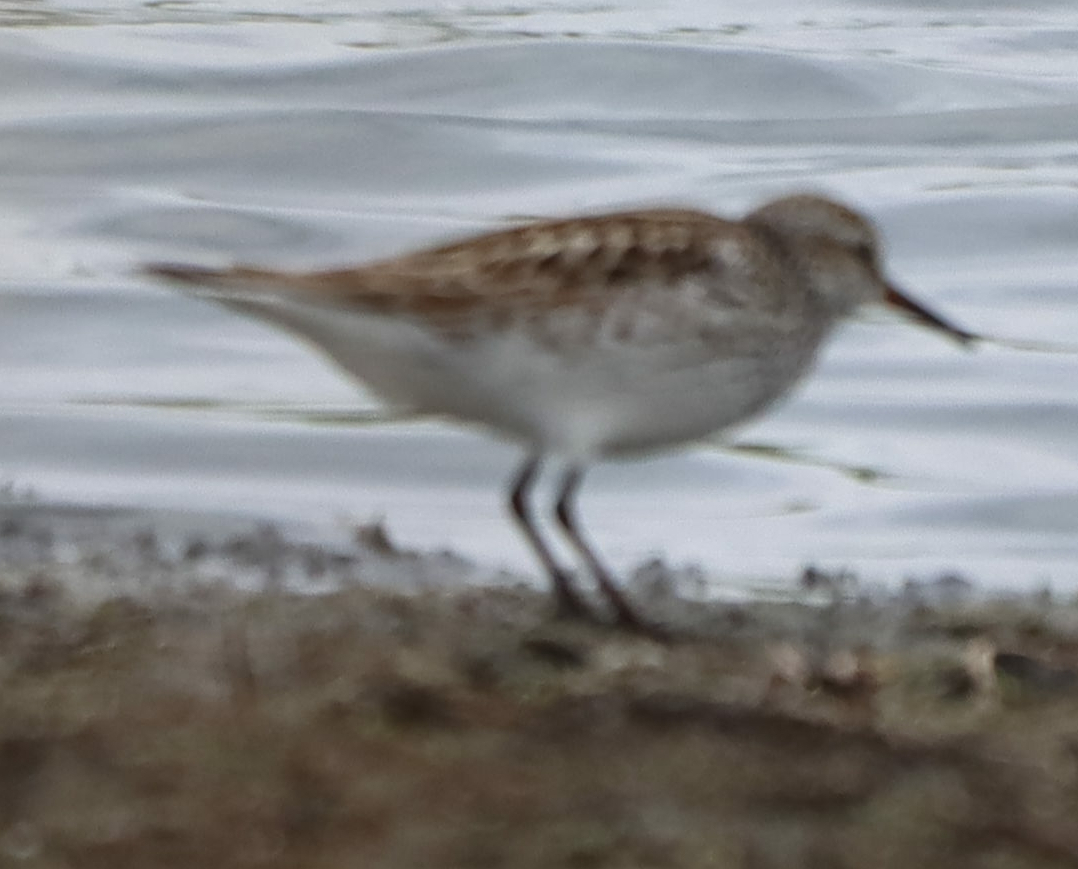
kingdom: Animalia
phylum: Chordata
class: Aves
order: Charadriiformes
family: Scolopacidae
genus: Calidris
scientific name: Calidris fuscicollis
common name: White-rumped sandpiper
